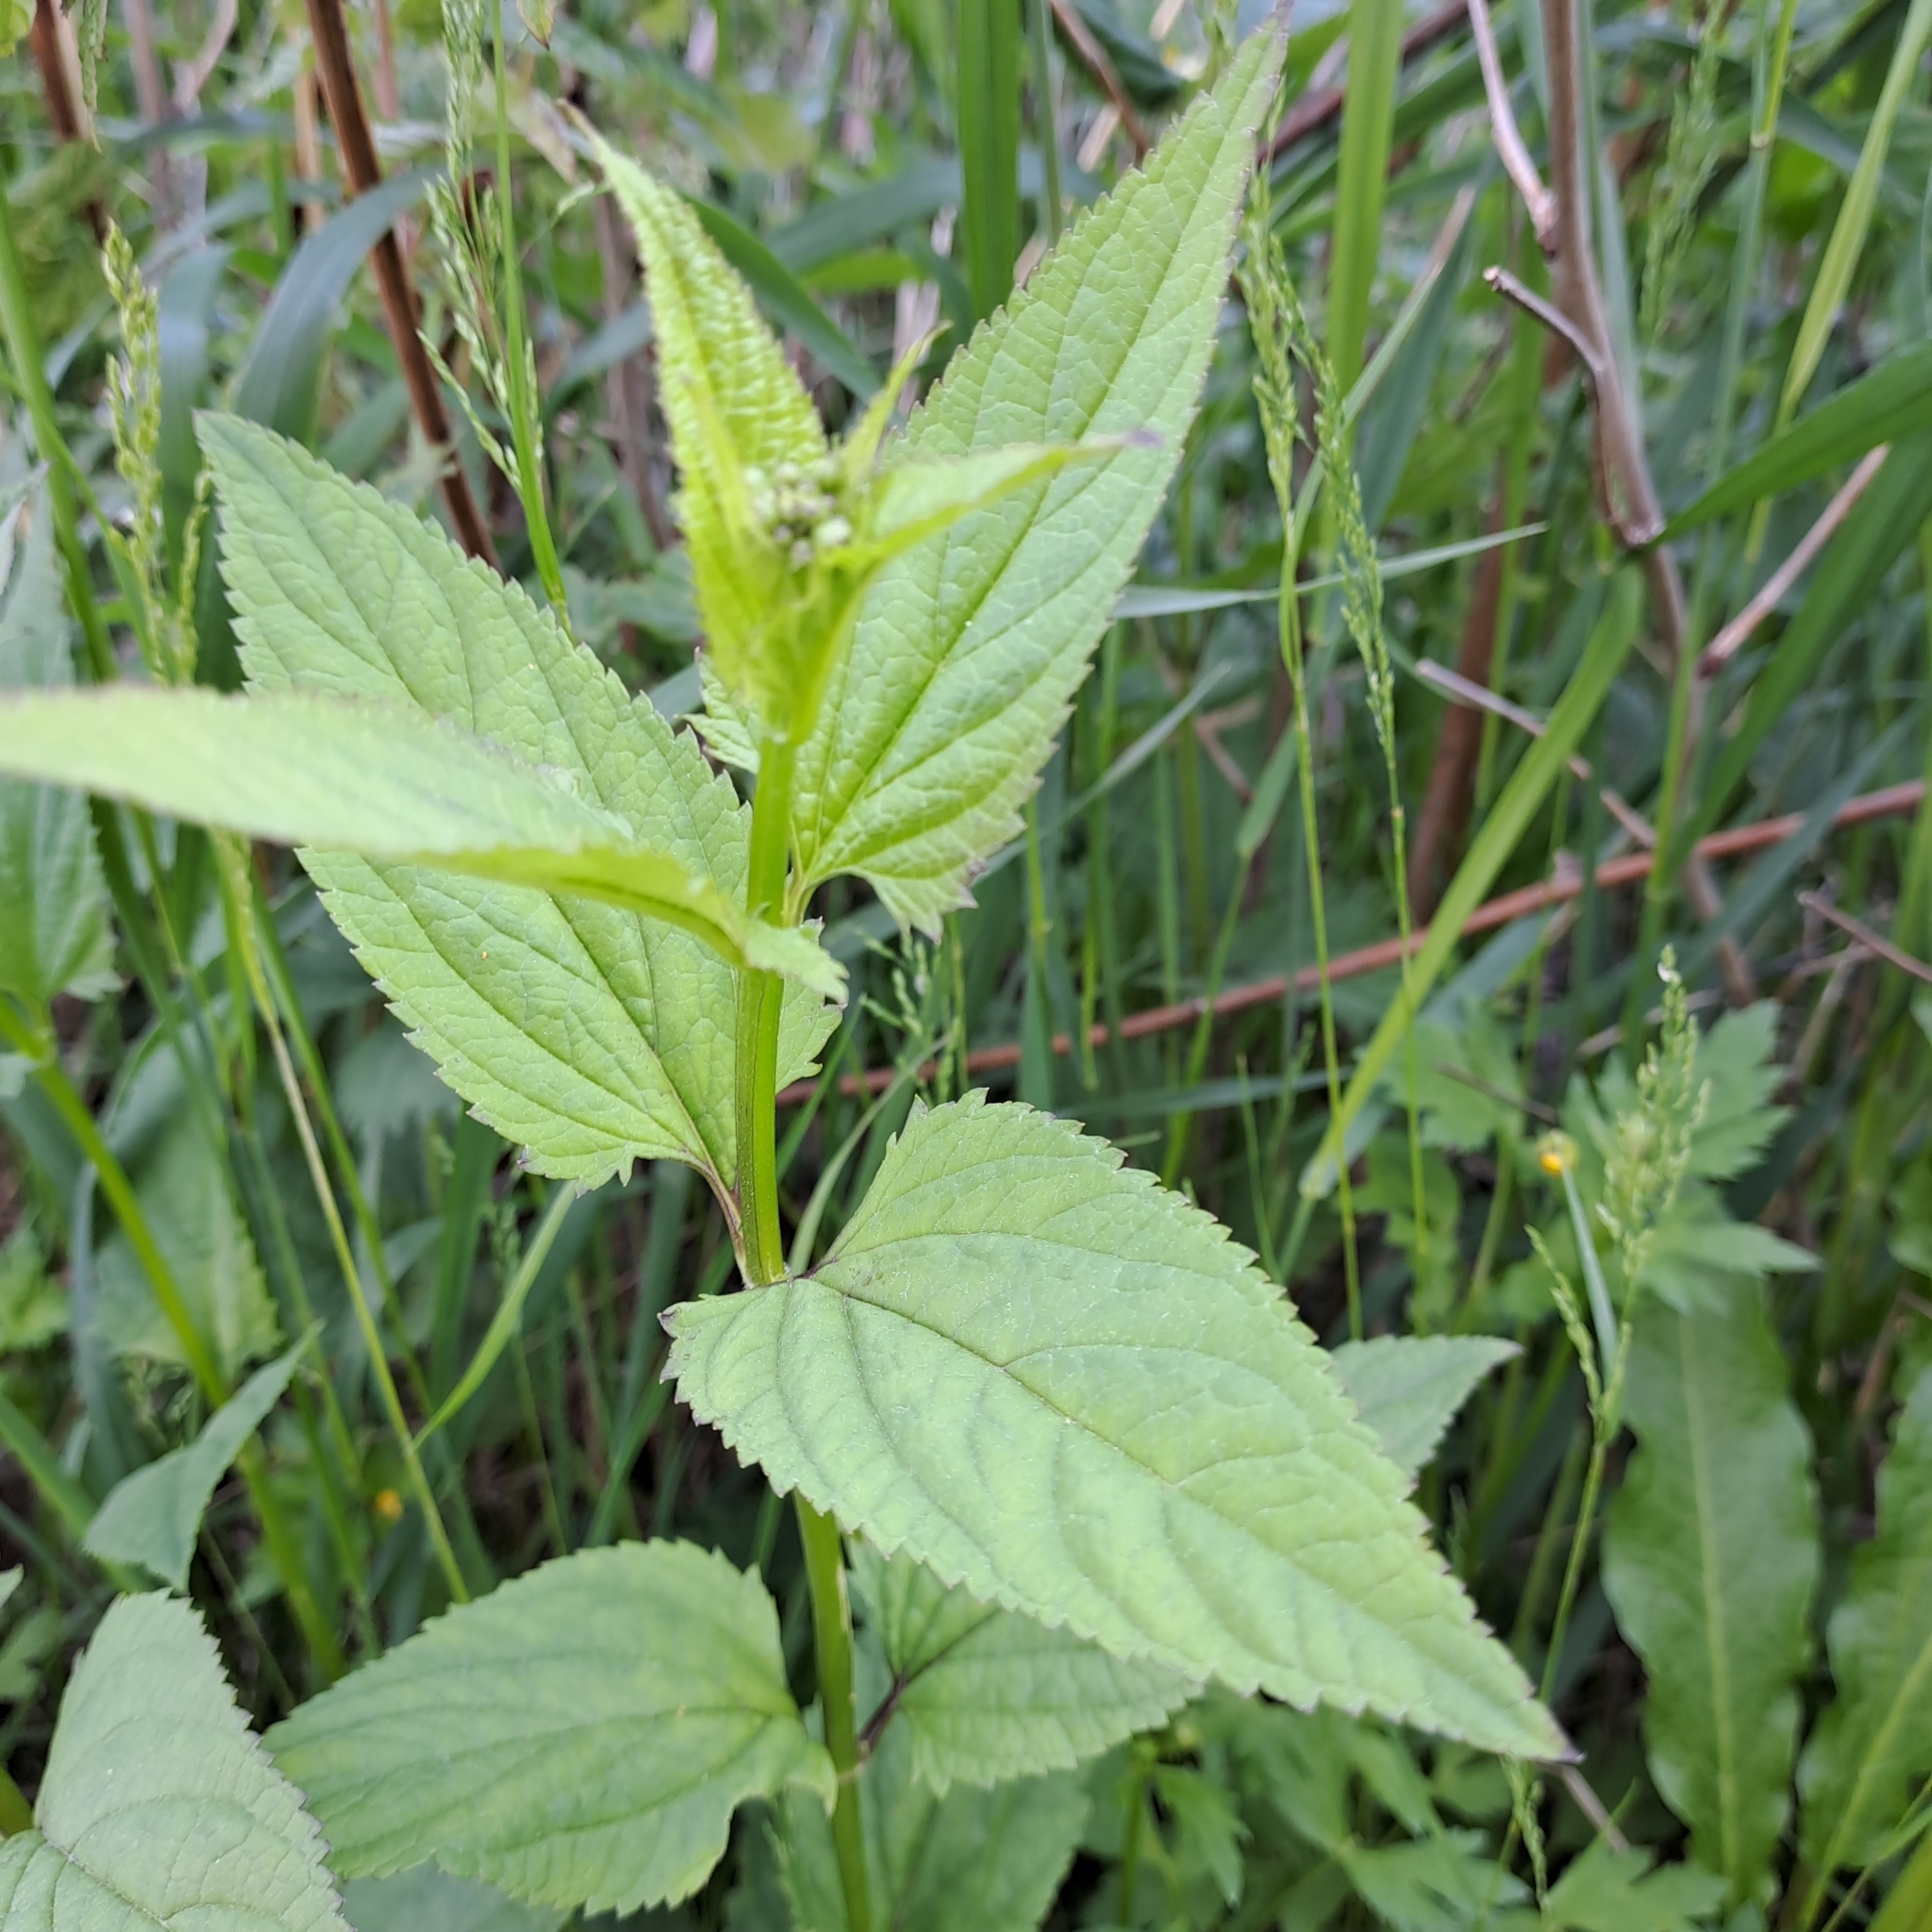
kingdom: Plantae
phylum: Tracheophyta
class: Magnoliopsida
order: Lamiales
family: Scrophulariaceae
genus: Scrophularia
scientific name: Scrophularia nodosa
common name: Common figwort
